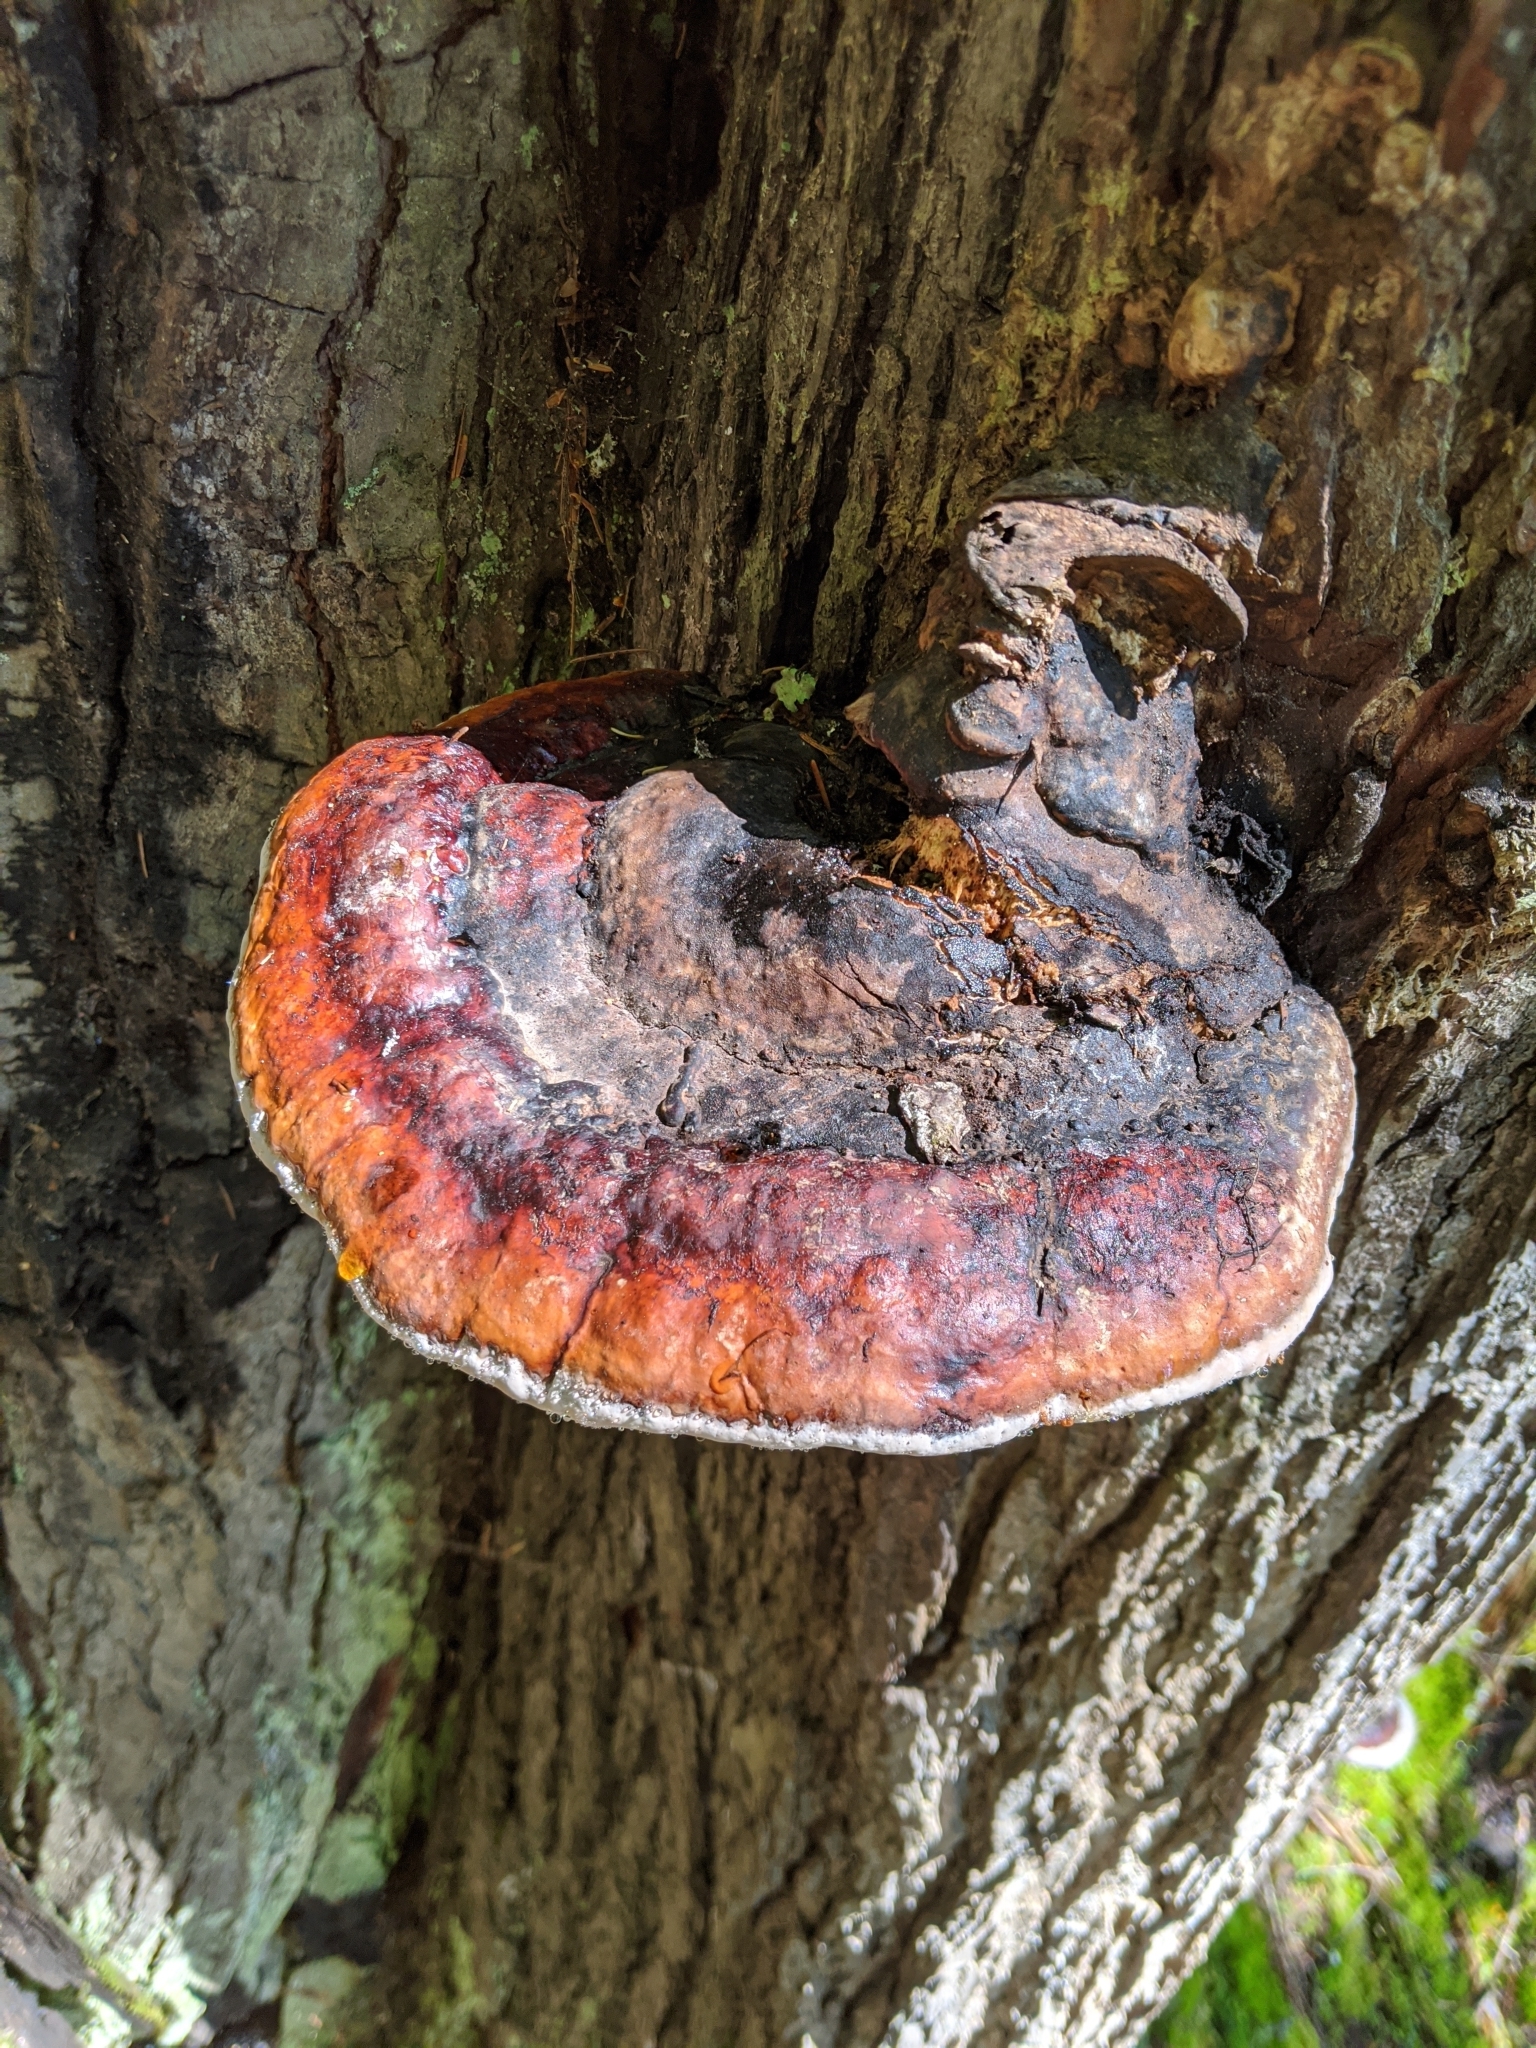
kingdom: Fungi
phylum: Basidiomycota
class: Agaricomycetes
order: Polyporales
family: Fomitopsidaceae
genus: Fomitopsis
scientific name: Fomitopsis mounceae
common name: Northern red belt
